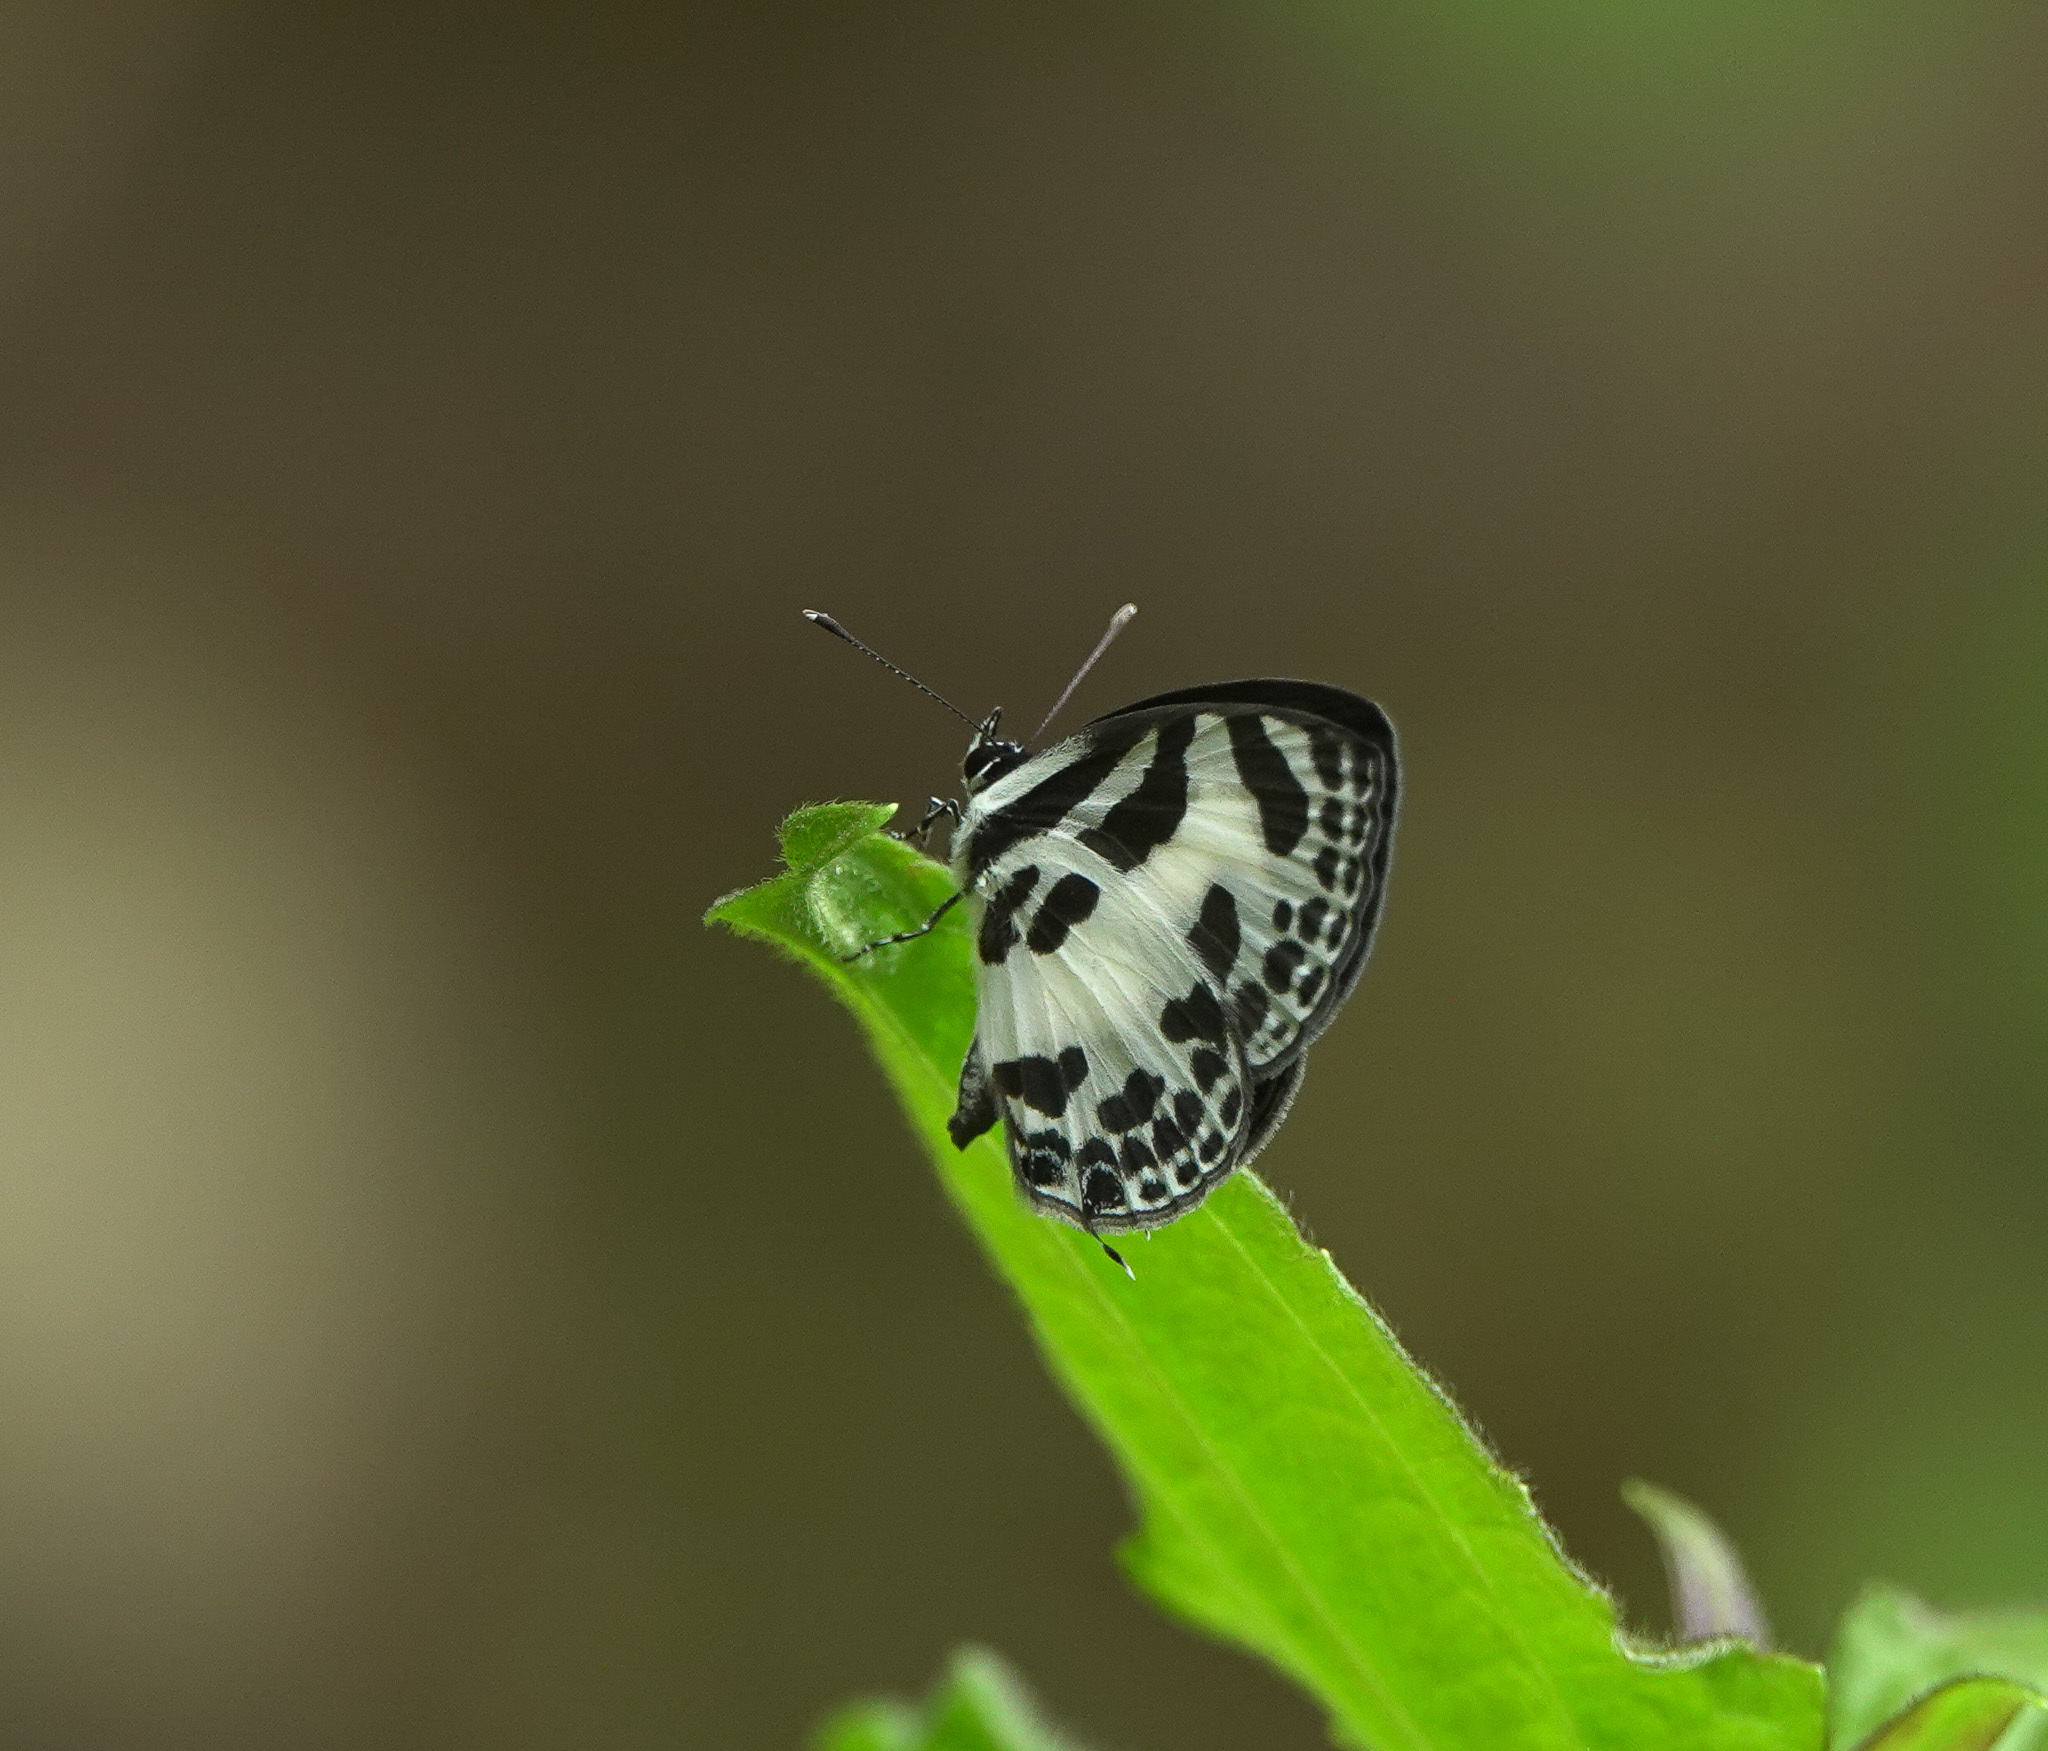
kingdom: Animalia
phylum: Arthropoda
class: Insecta
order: Lepidoptera
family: Lycaenidae
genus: Discolampa
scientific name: Discolampa ethion
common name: Banded blue pierrot
